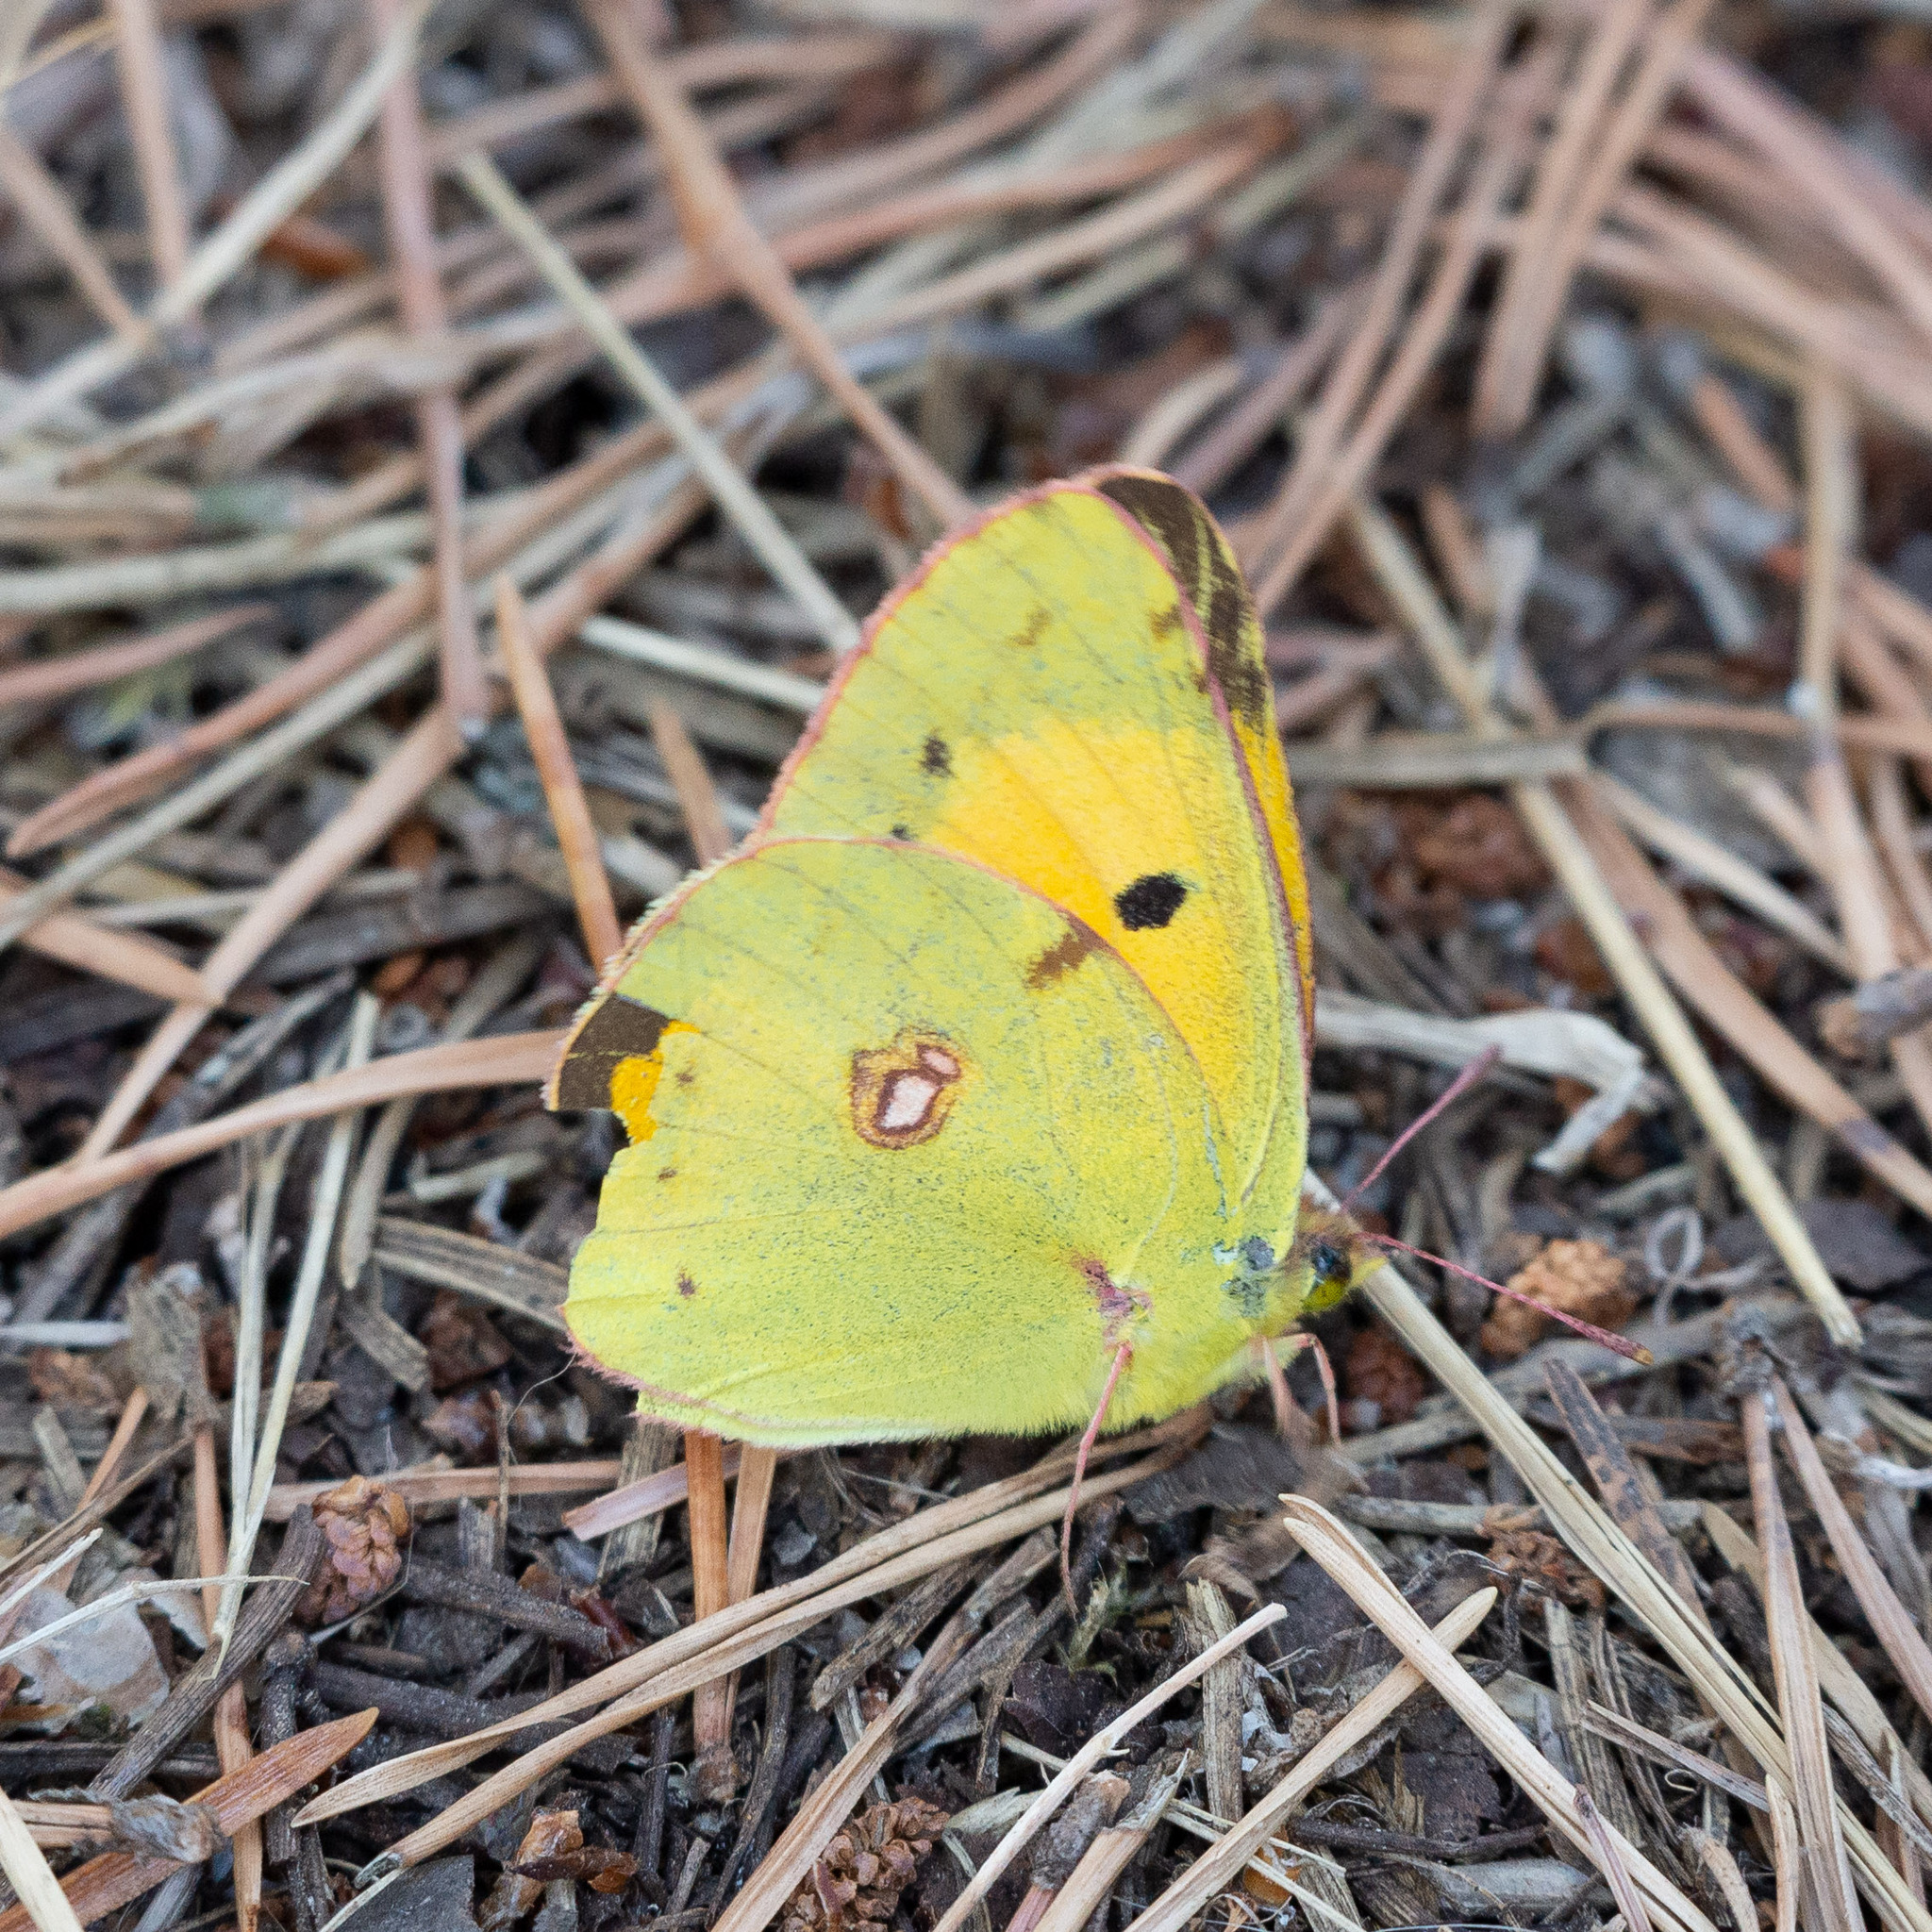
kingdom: Animalia
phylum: Arthropoda
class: Insecta
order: Lepidoptera
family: Pieridae
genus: Colias
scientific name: Colias croceus
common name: Clouded yellow
